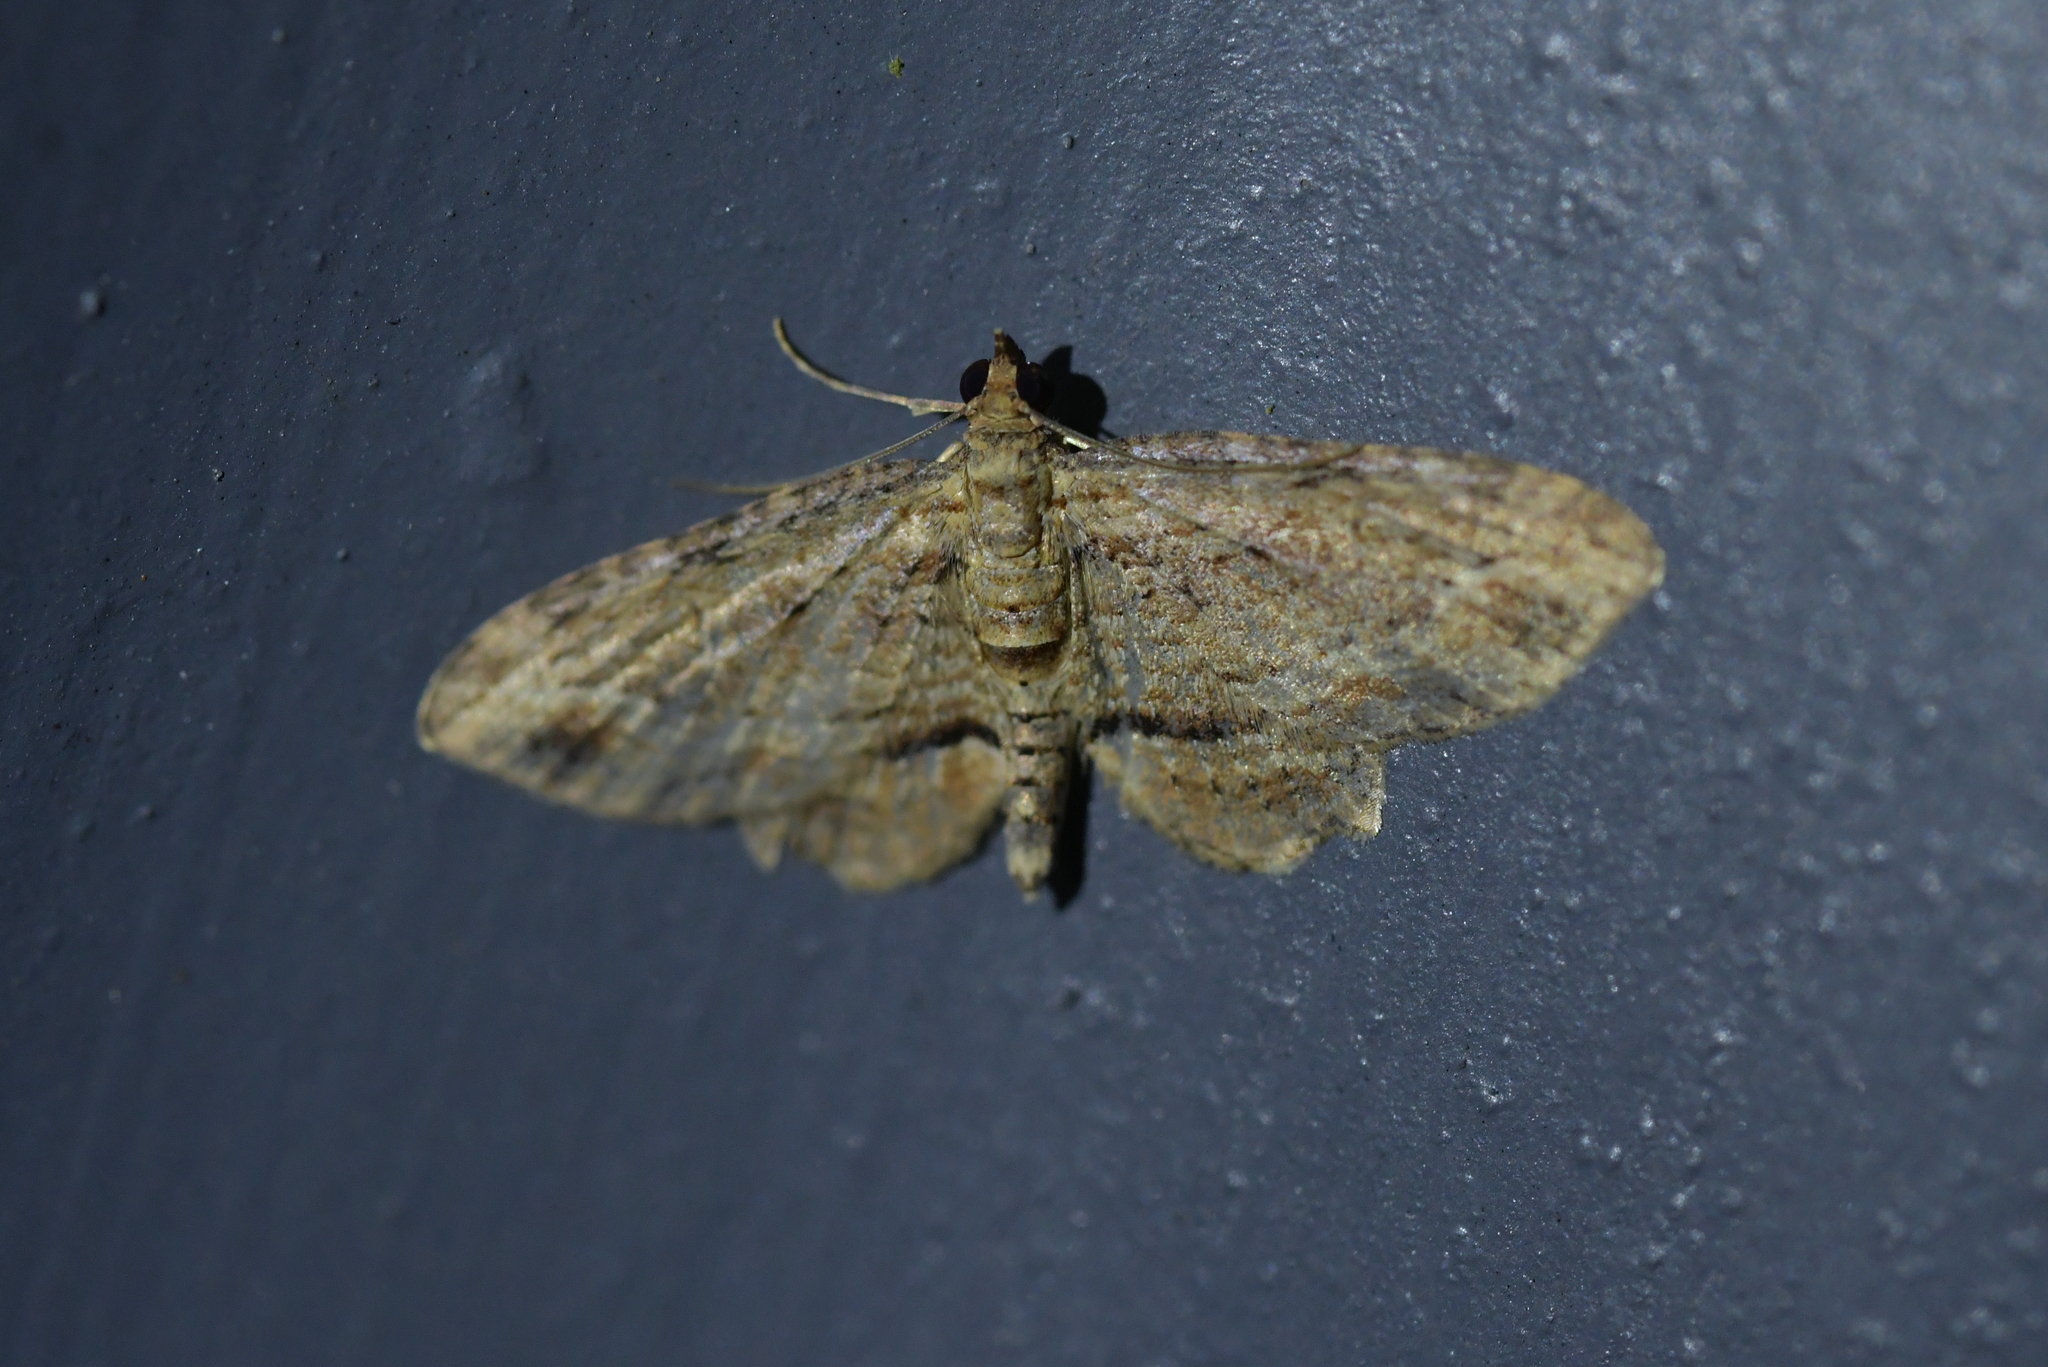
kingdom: Animalia
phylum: Arthropoda
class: Insecta
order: Lepidoptera
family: Geometridae
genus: Chloroclystis
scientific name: Chloroclystis filata
